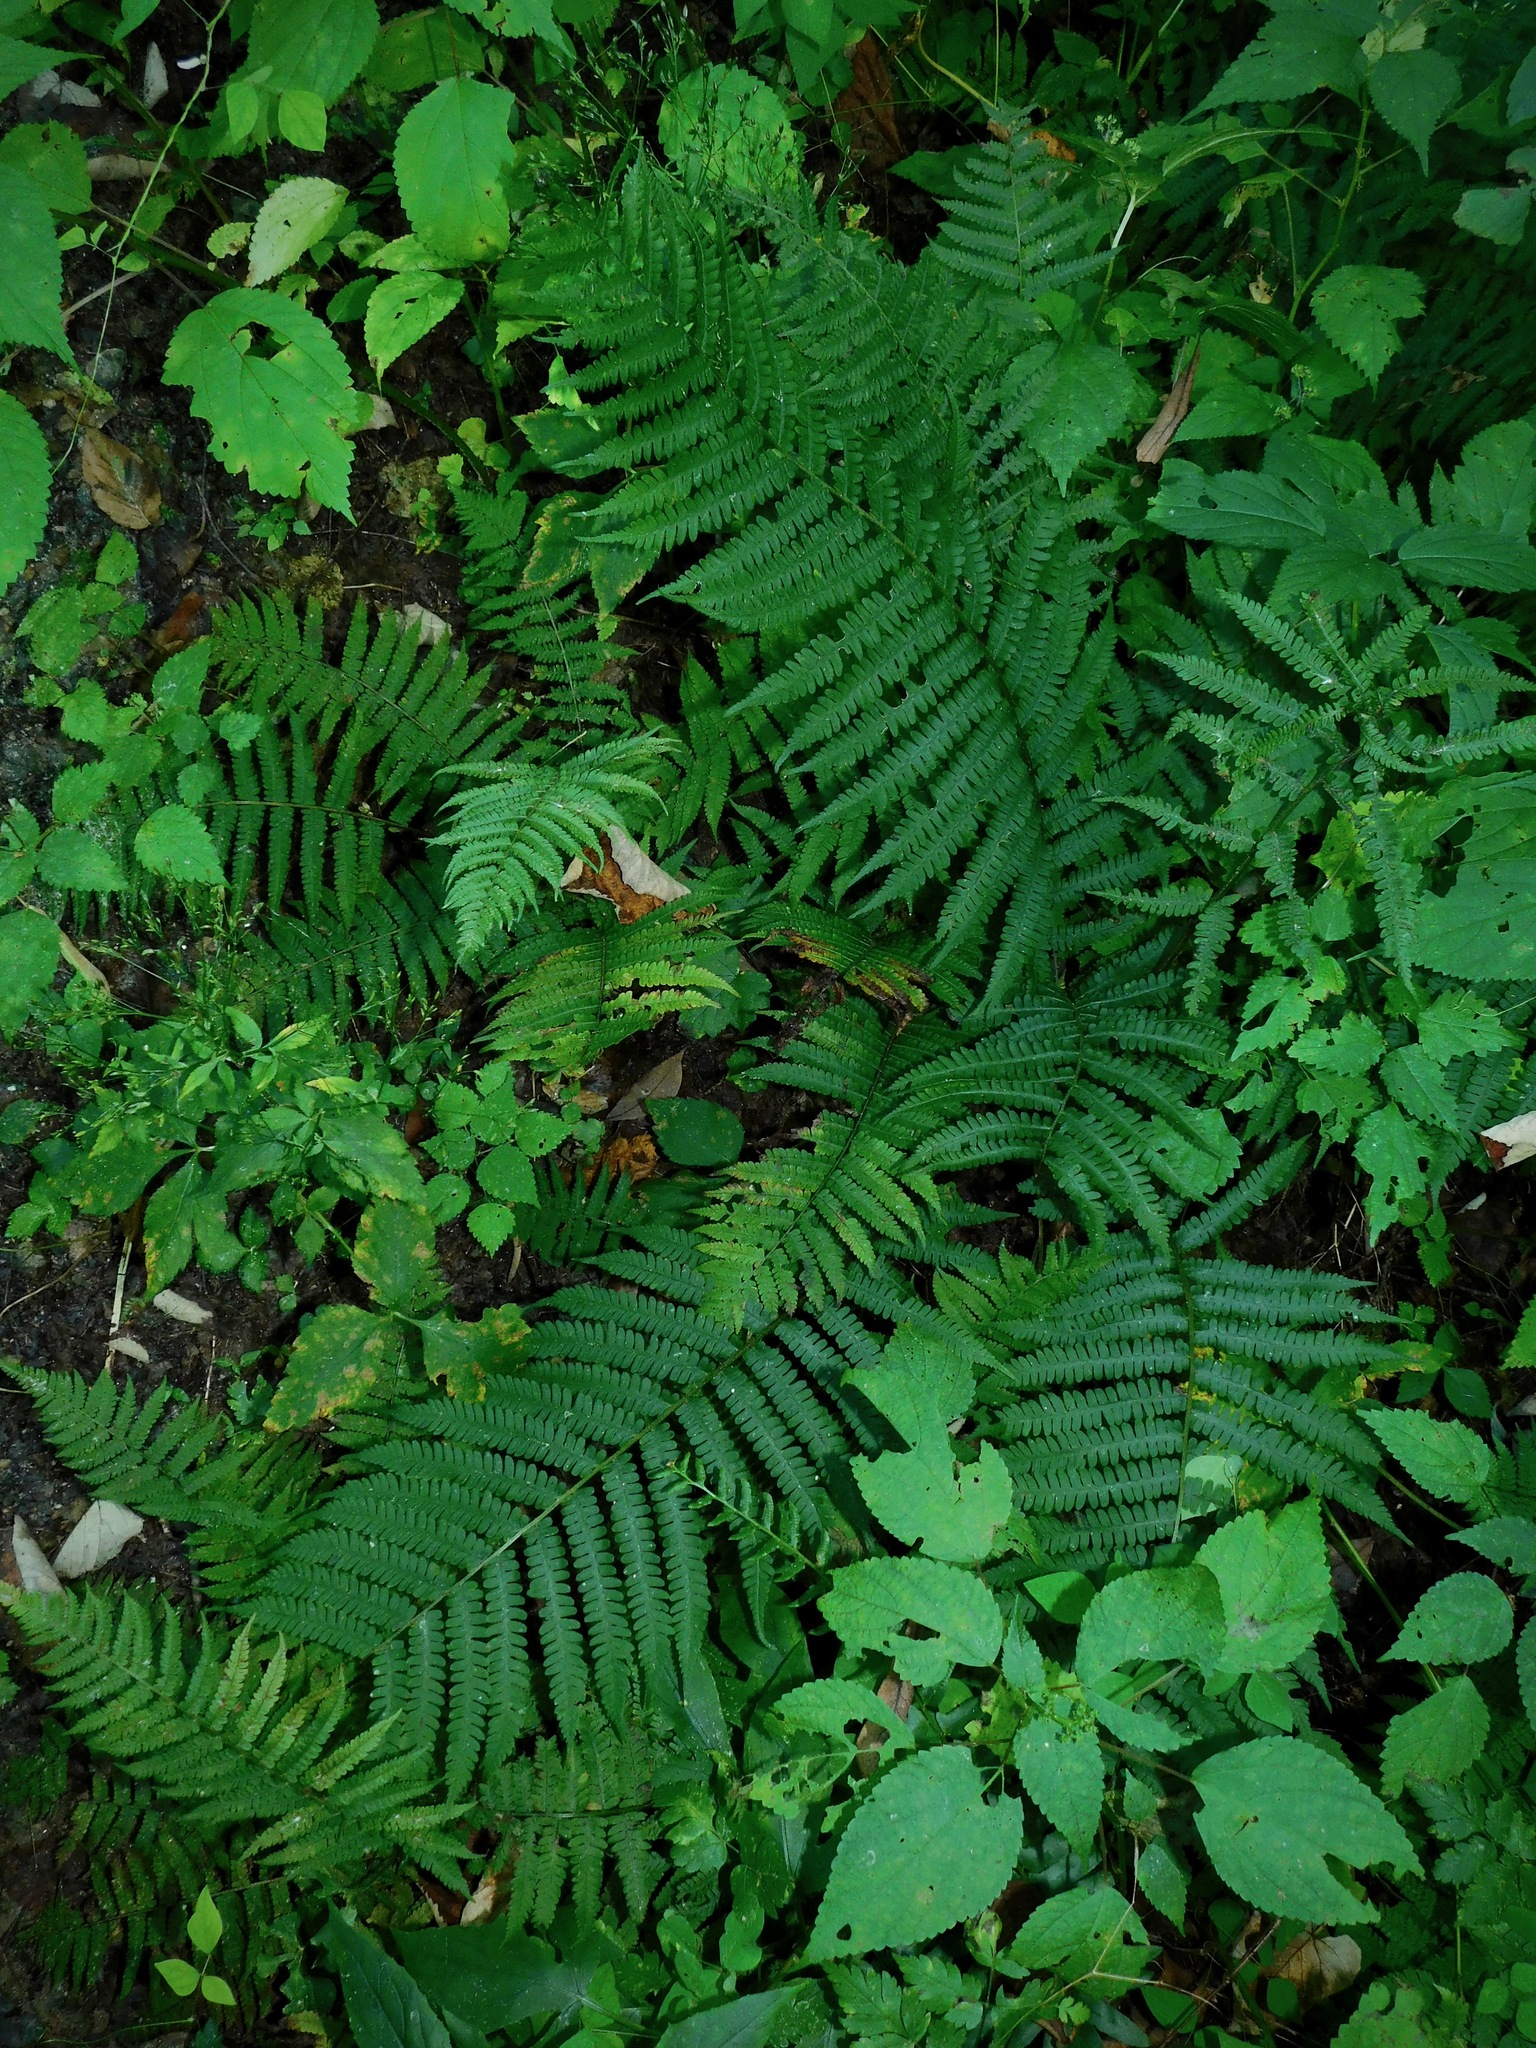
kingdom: Plantae
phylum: Tracheophyta
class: Polypodiopsida
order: Polypodiales
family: Athyriaceae
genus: Deparia
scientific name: Deparia acrostichoides
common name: Silver false spleenwort
